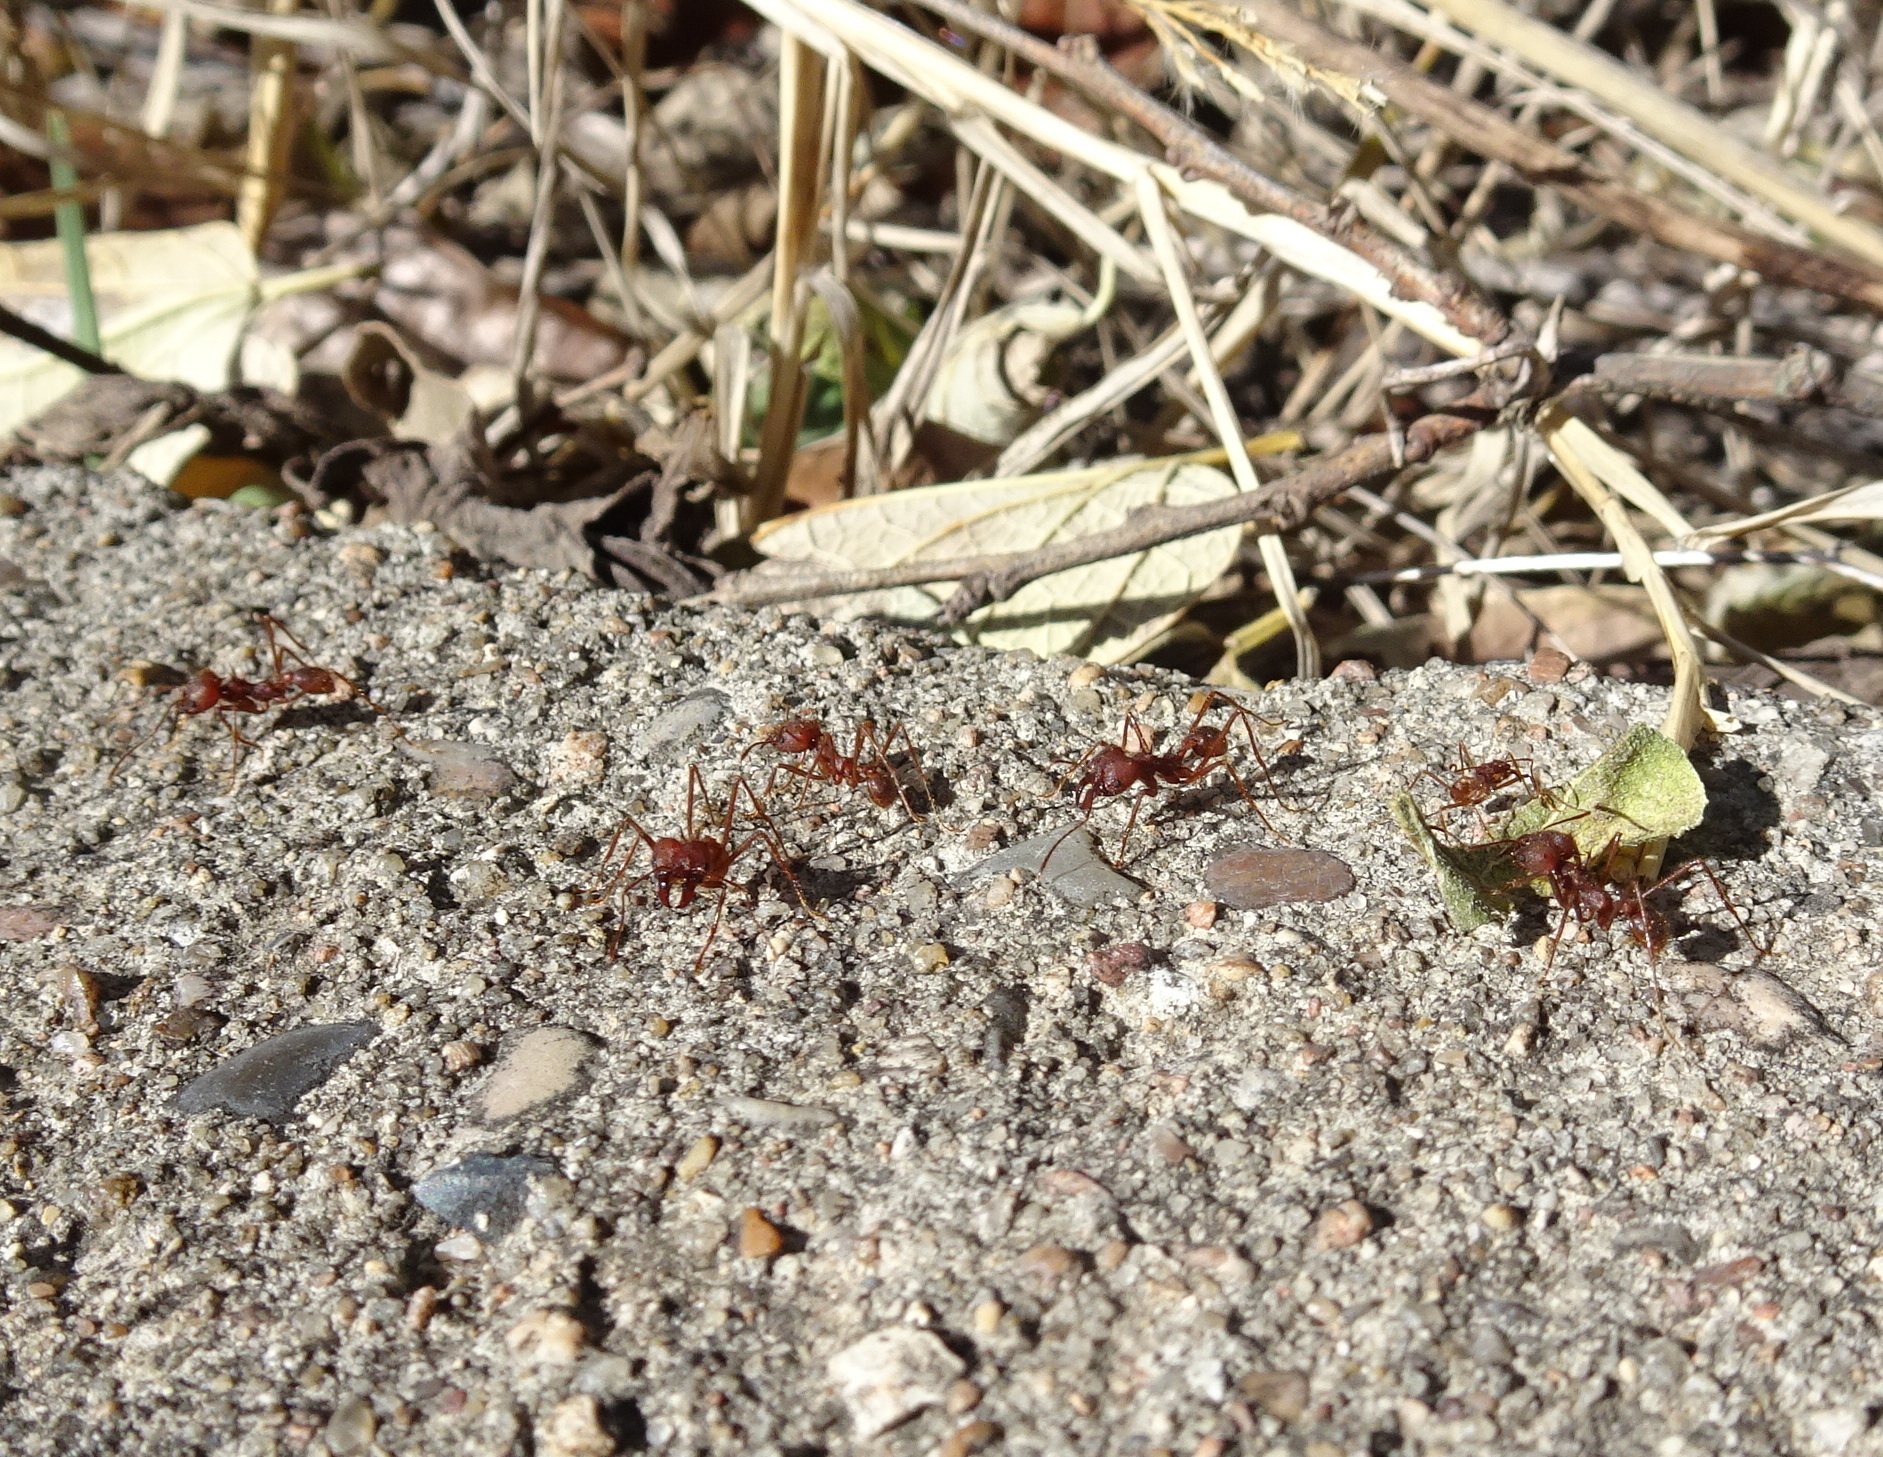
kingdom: Animalia
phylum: Arthropoda
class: Insecta
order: Hymenoptera
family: Formicidae
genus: Atta
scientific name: Atta texana
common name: Texas leafcutting ant
